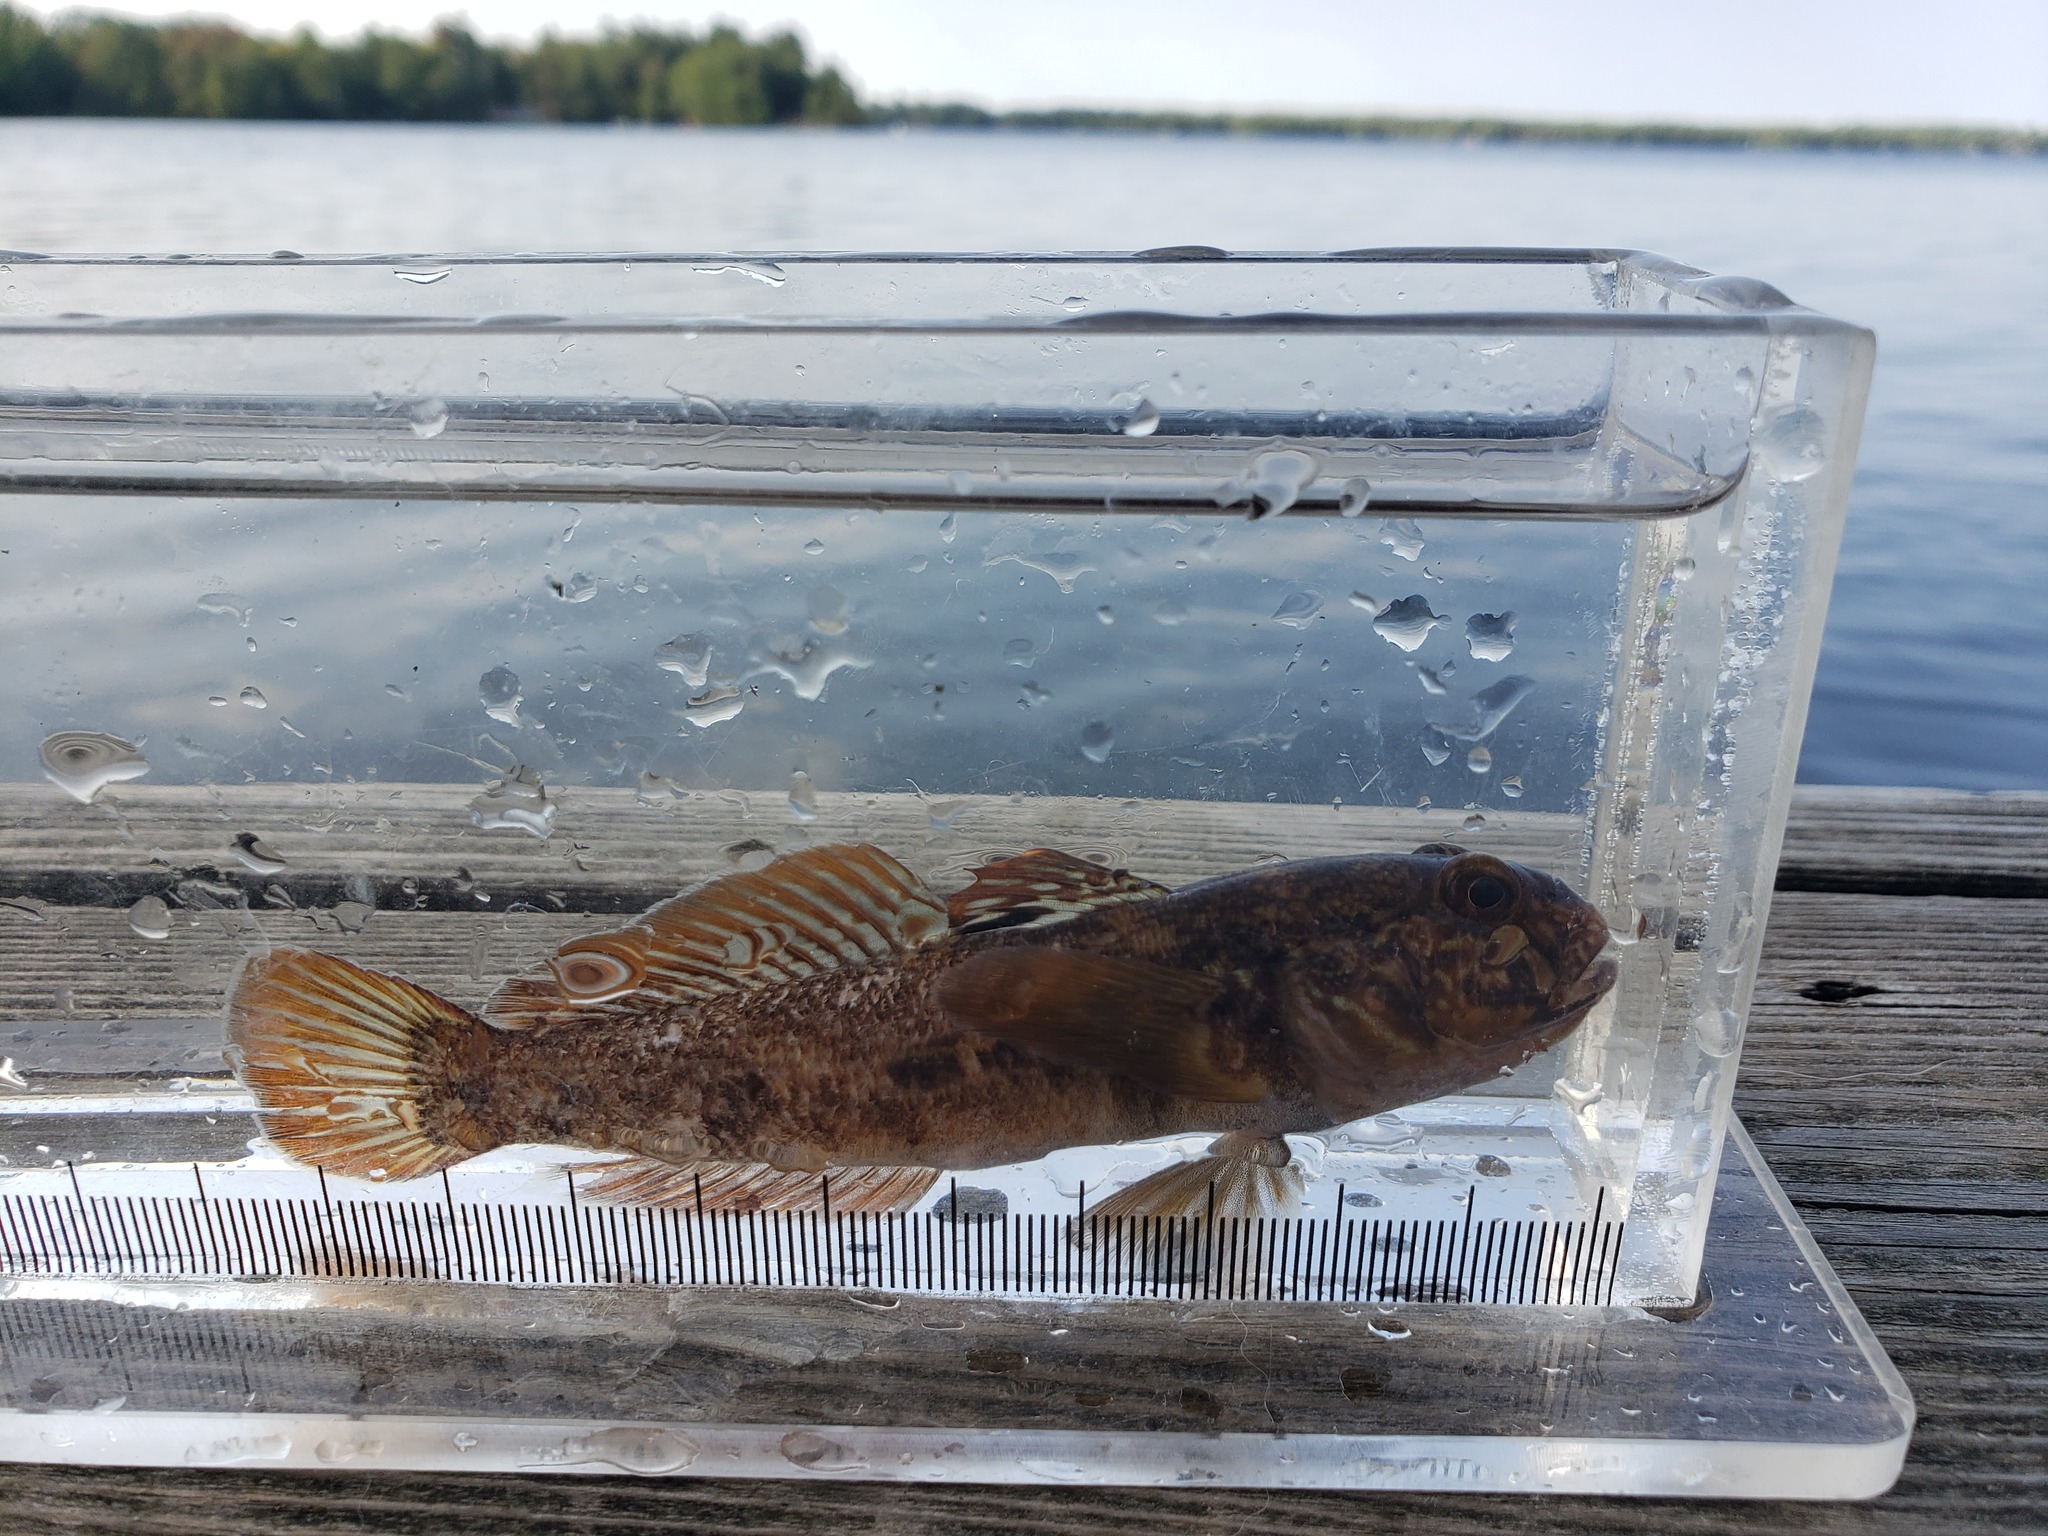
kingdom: Animalia
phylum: Chordata
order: Perciformes
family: Gobiidae
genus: Neogobius
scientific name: Neogobius melanostomus
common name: Round goby
